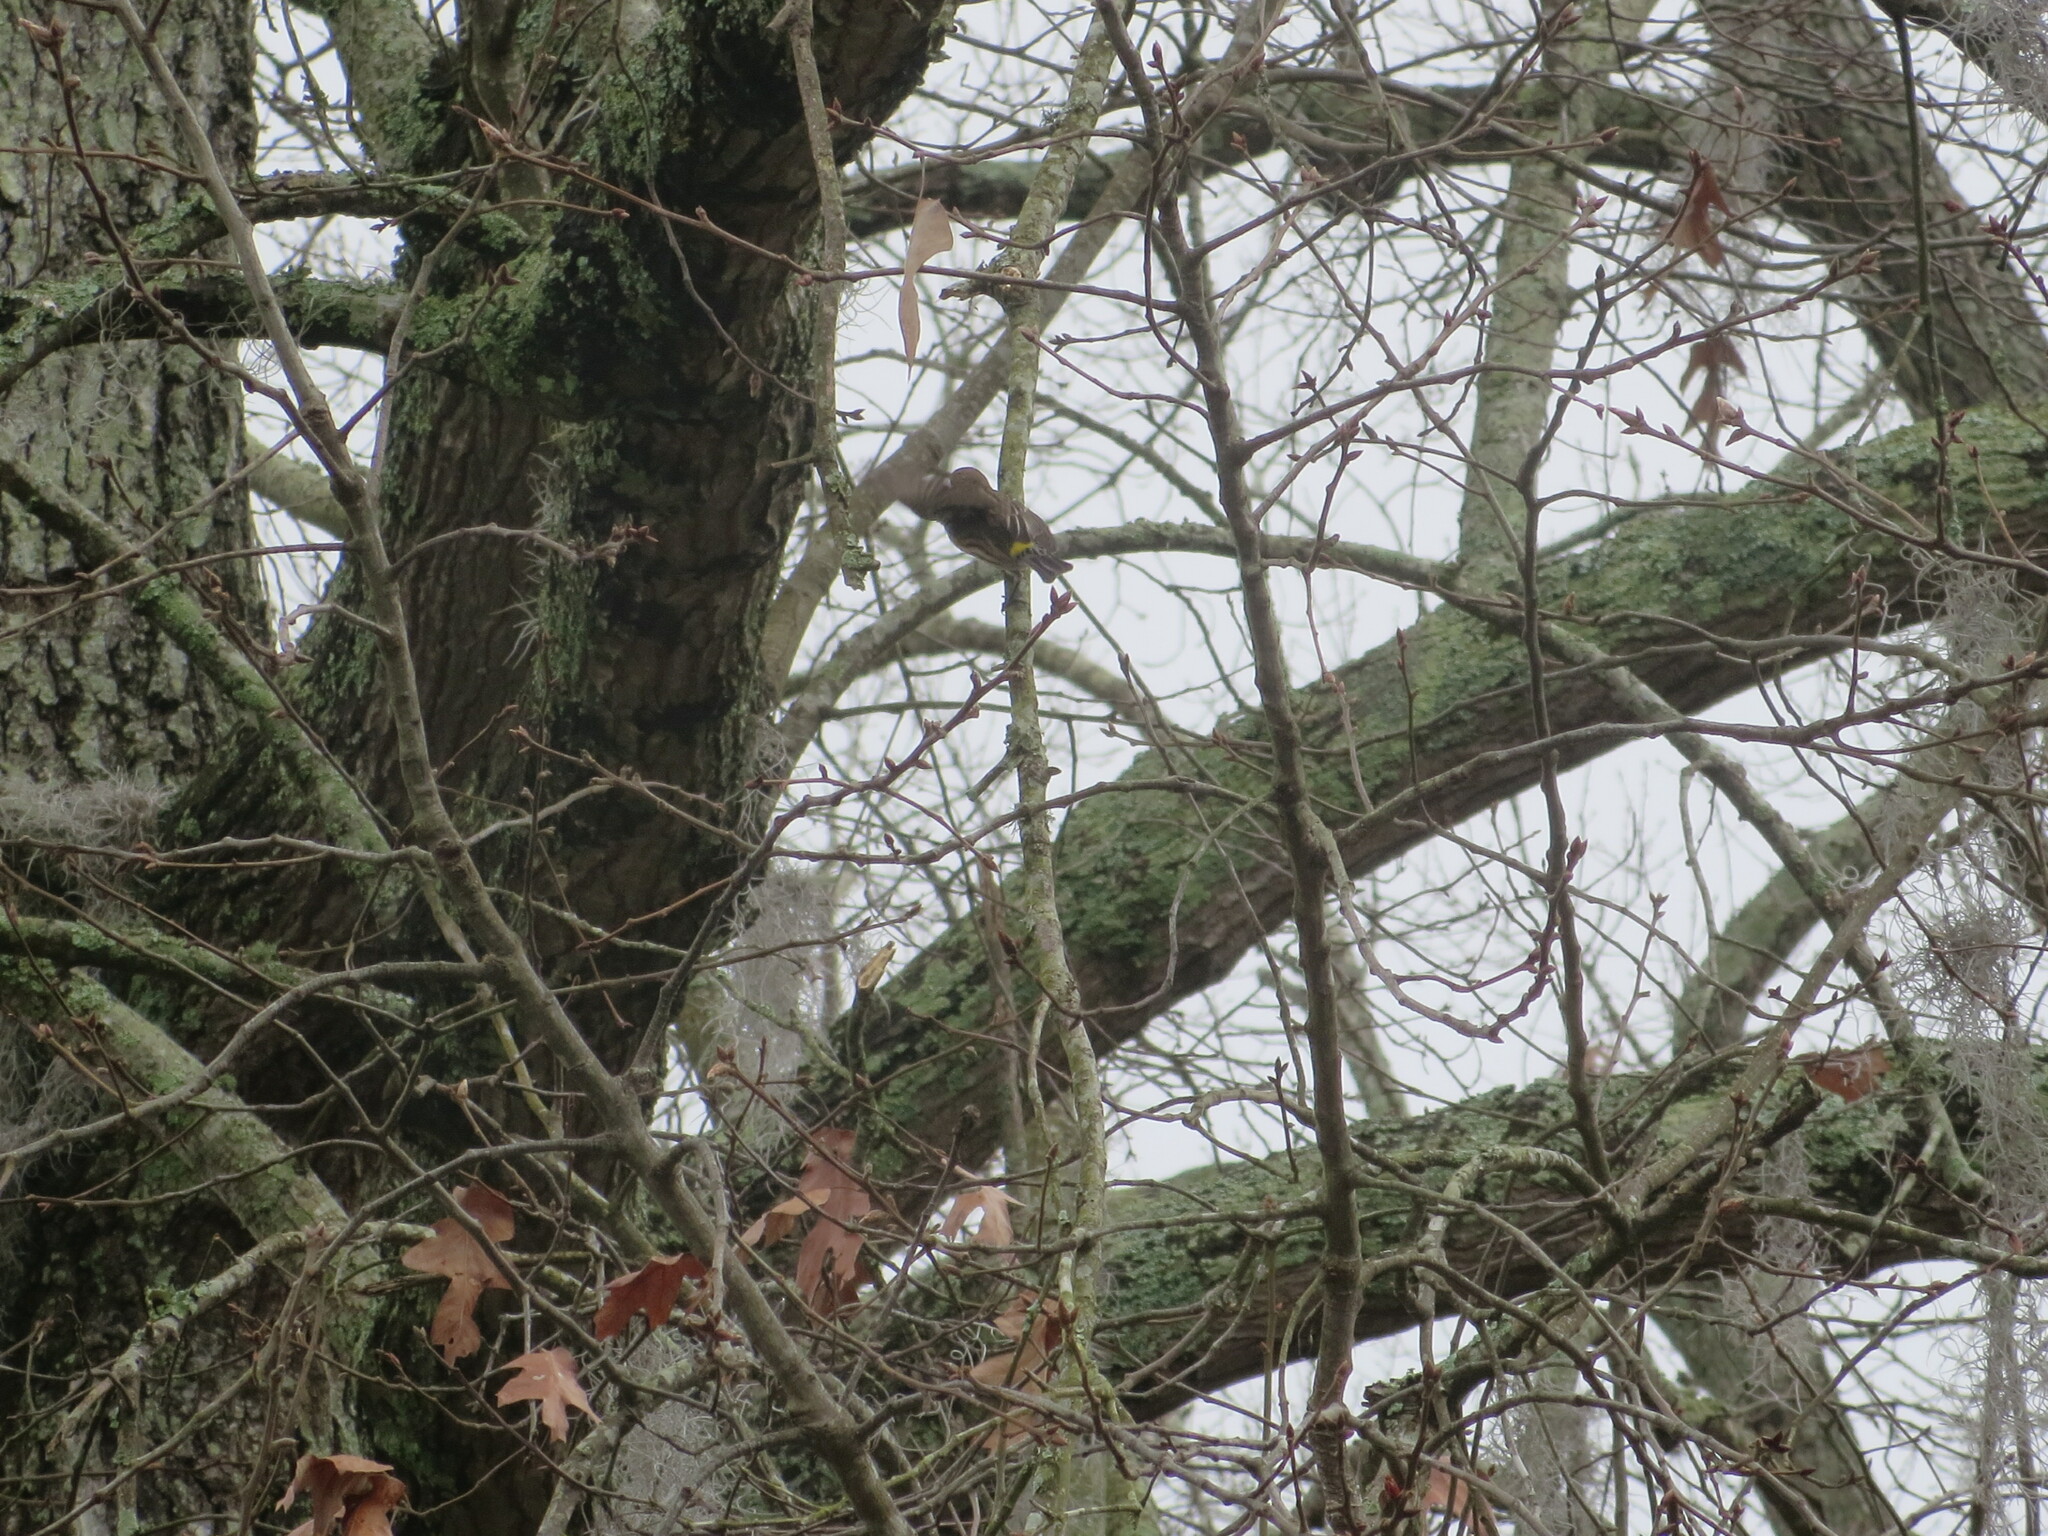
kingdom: Animalia
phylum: Chordata
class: Aves
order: Passeriformes
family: Parulidae
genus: Setophaga
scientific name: Setophaga coronata
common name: Myrtle warbler
